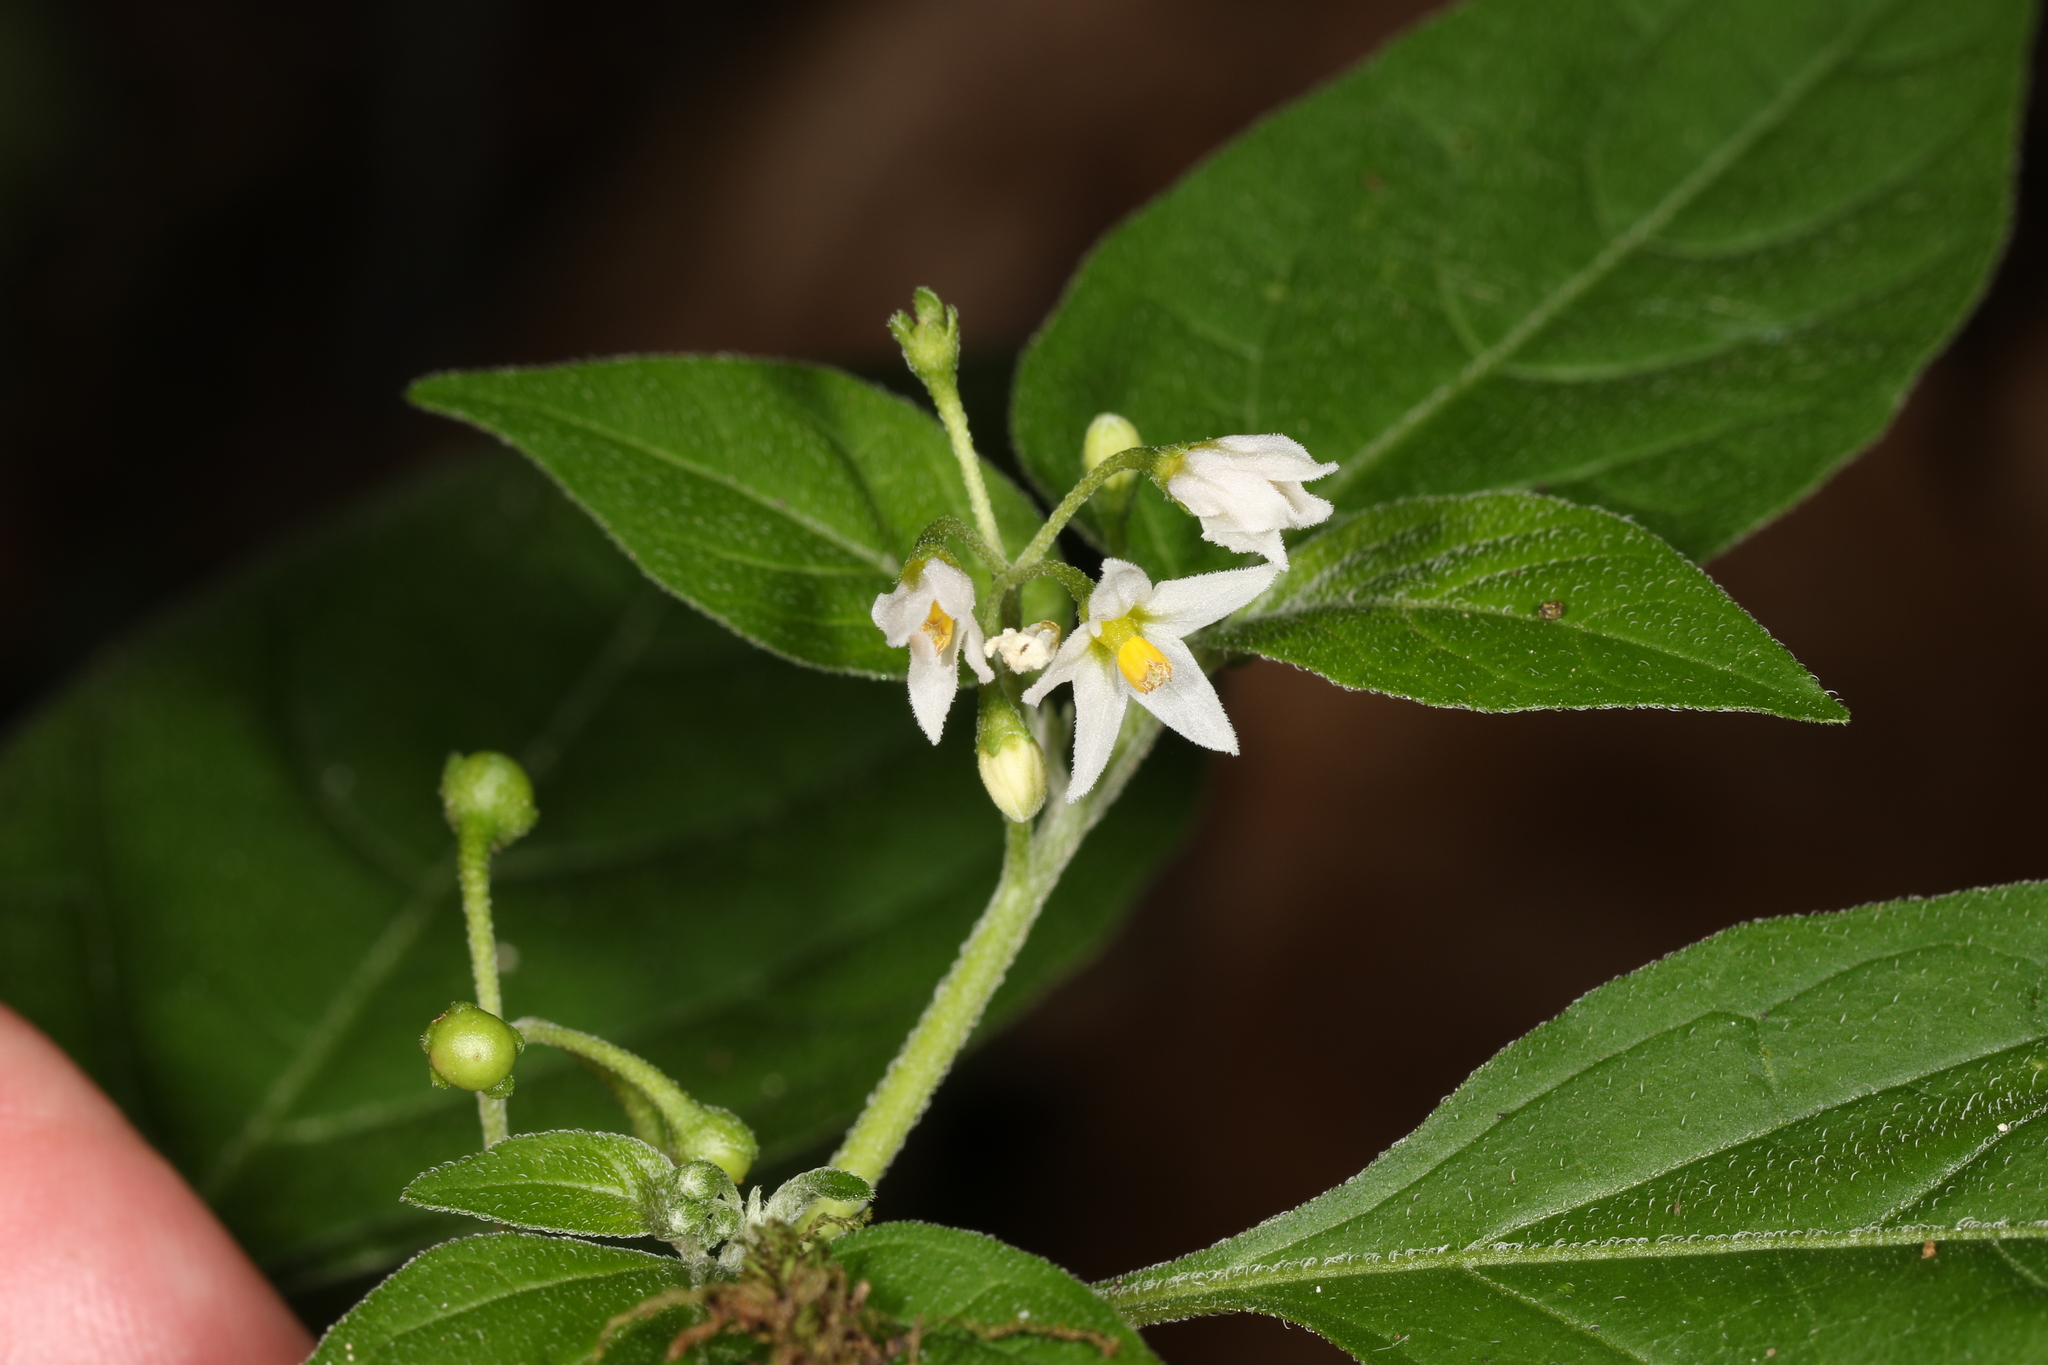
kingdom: Plantae
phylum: Tracheophyta
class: Magnoliopsida
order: Solanales
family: Solanaceae
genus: Solanum
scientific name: Solanum emulans
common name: Eastern black nightshade
